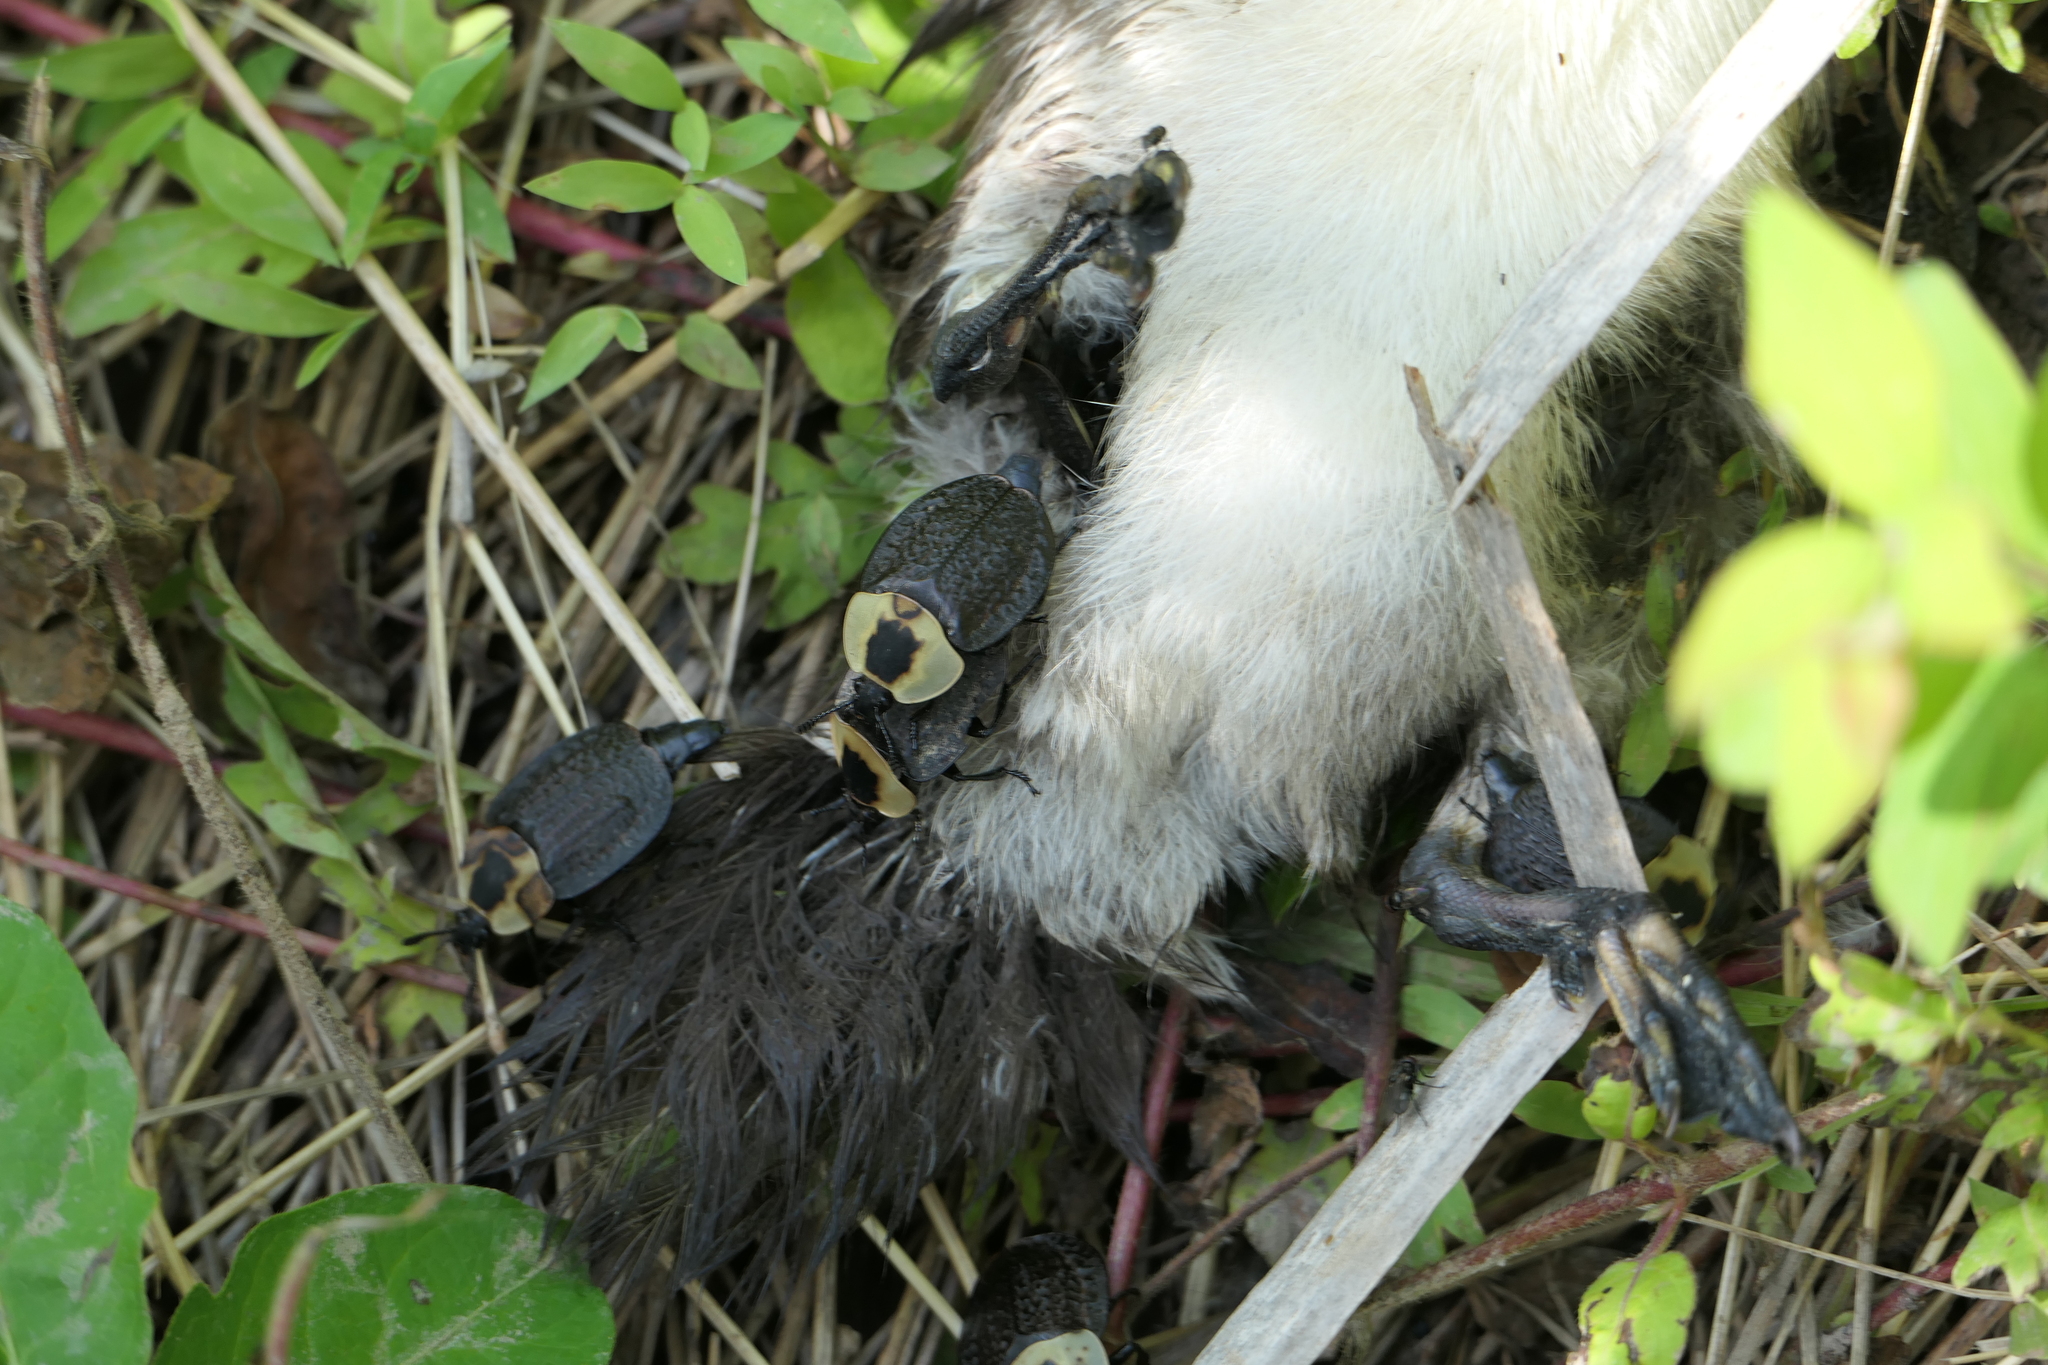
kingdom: Animalia
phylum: Arthropoda
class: Insecta
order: Coleoptera
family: Staphylinidae
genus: Necrophila
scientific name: Necrophila americana
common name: American carrion beetle
